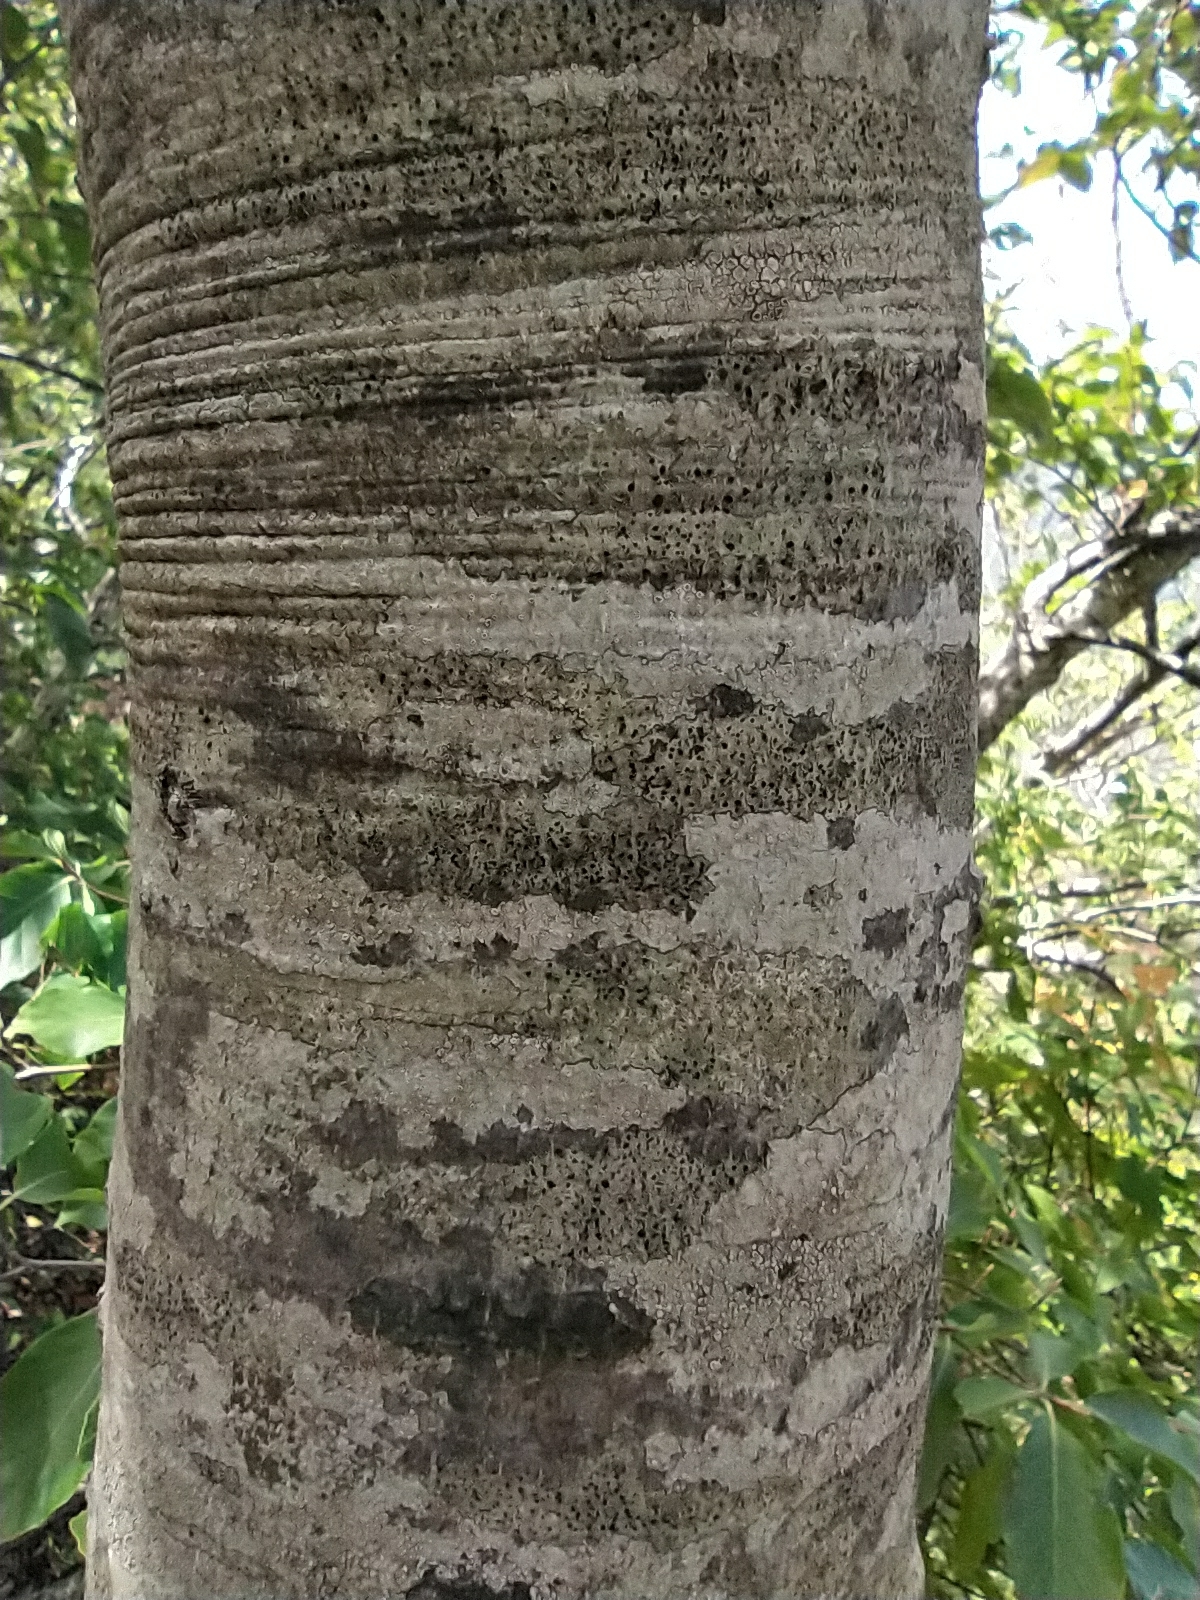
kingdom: Plantae
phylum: Tracheophyta
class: Magnoliopsida
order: Fagales
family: Fagaceae
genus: Fagus
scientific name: Fagus sylvatica
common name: Beech
